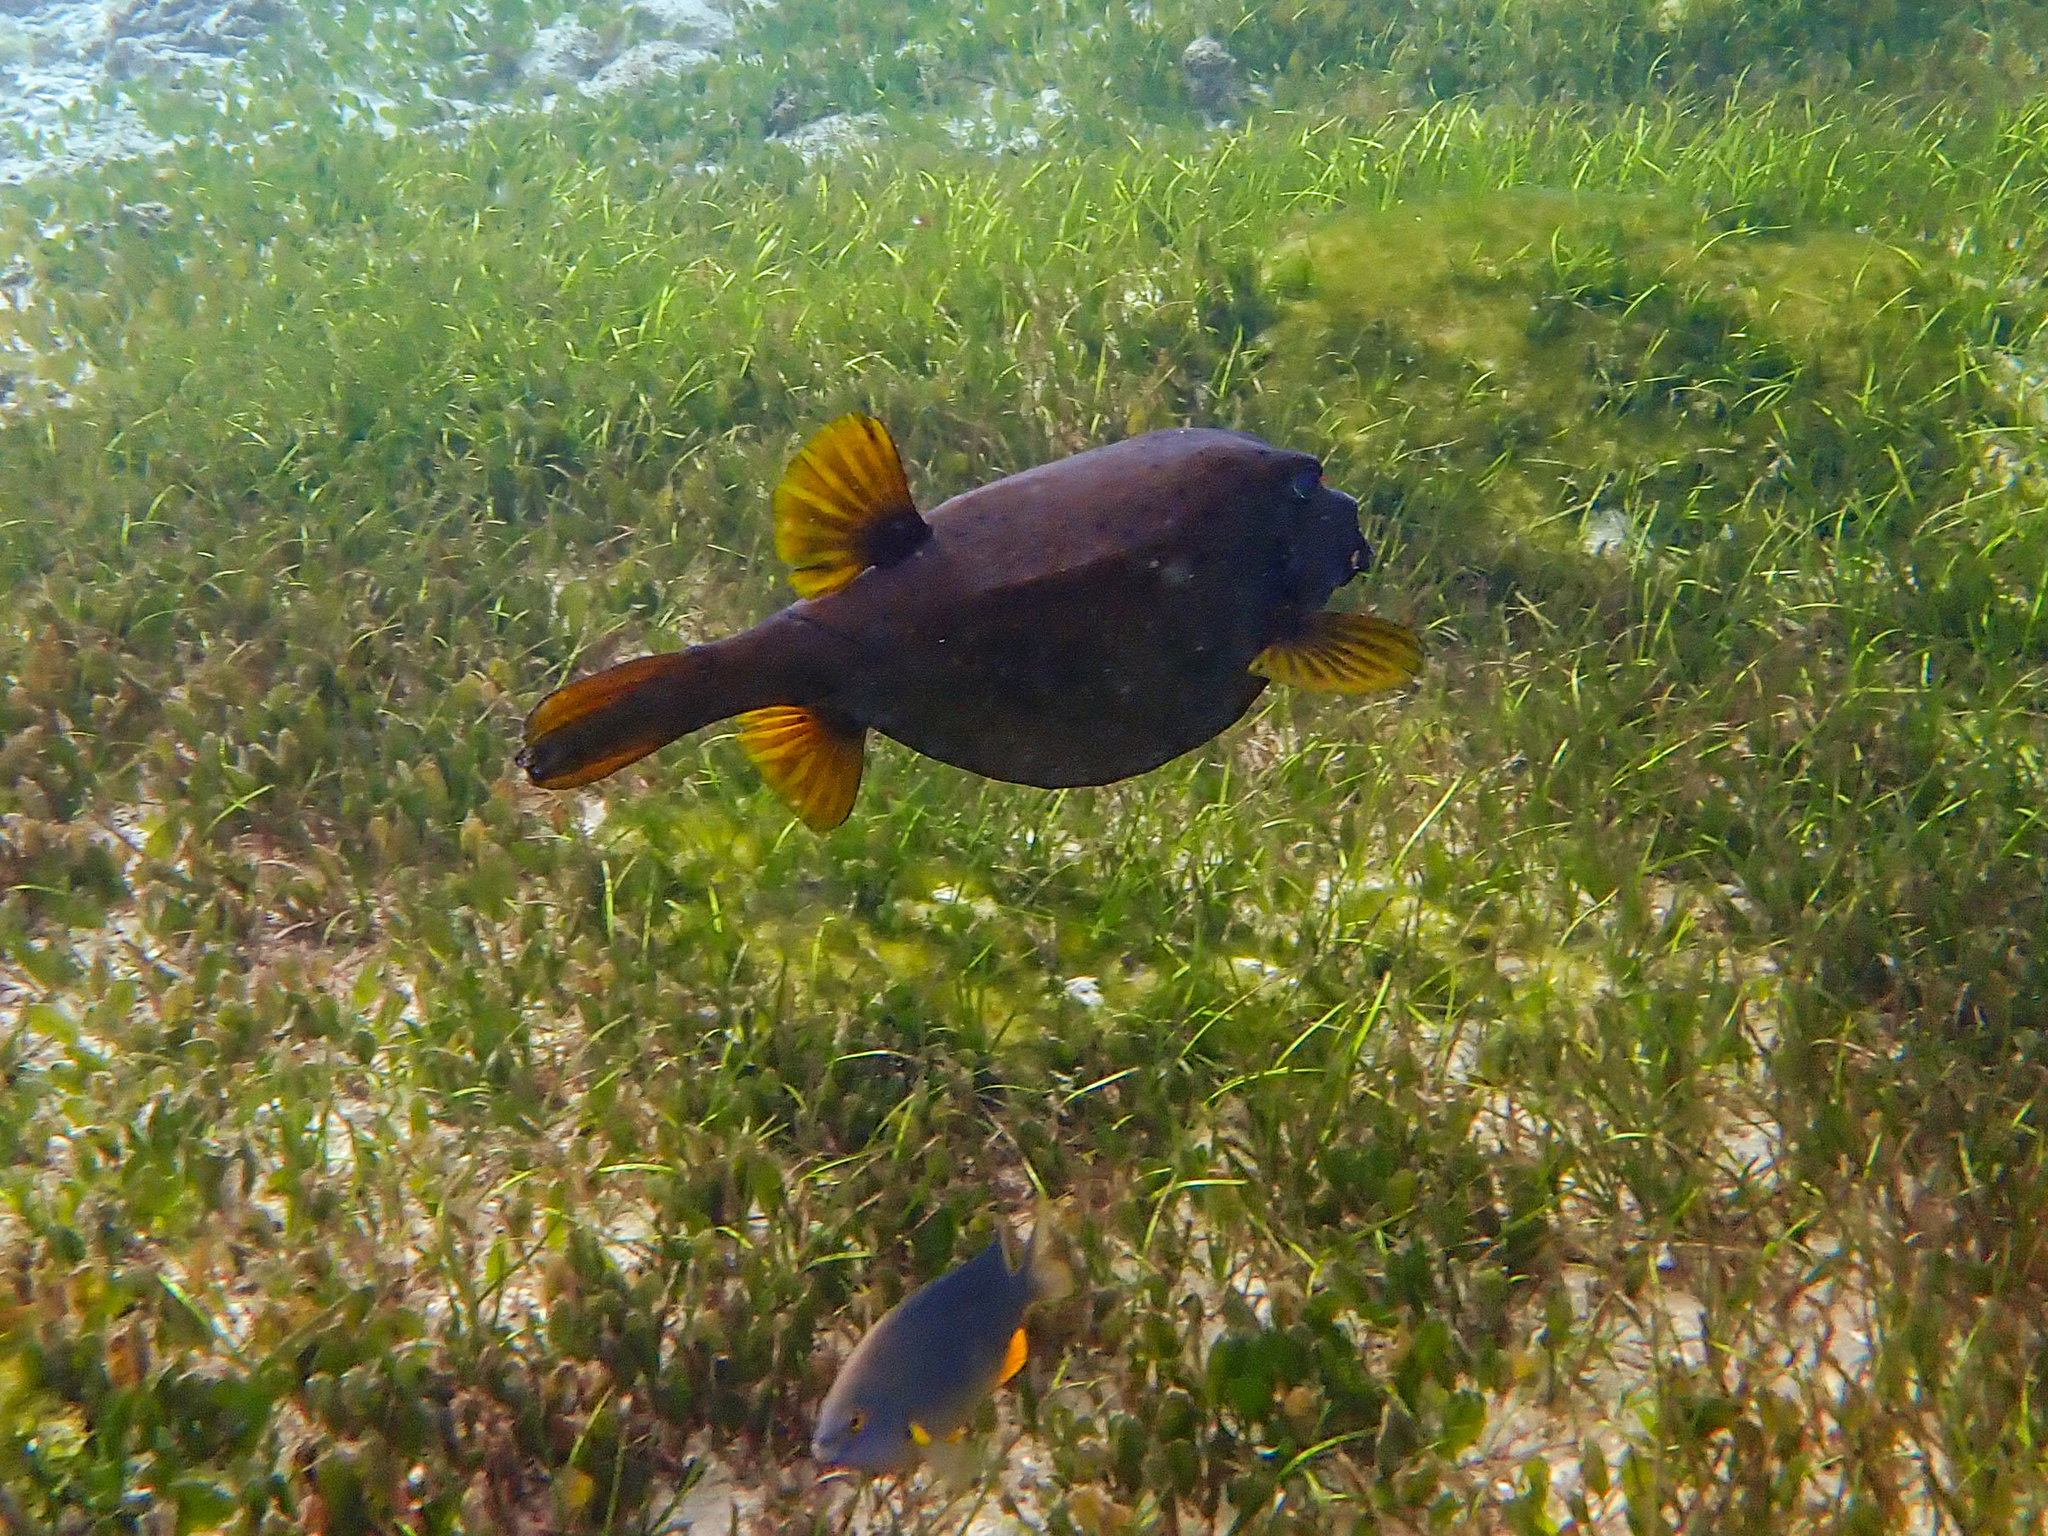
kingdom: Animalia
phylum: Chordata
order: Tetraodontiformes
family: Ostraciidae
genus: Ostracion
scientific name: Ostracion cubicus
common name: Cube trunkfish
